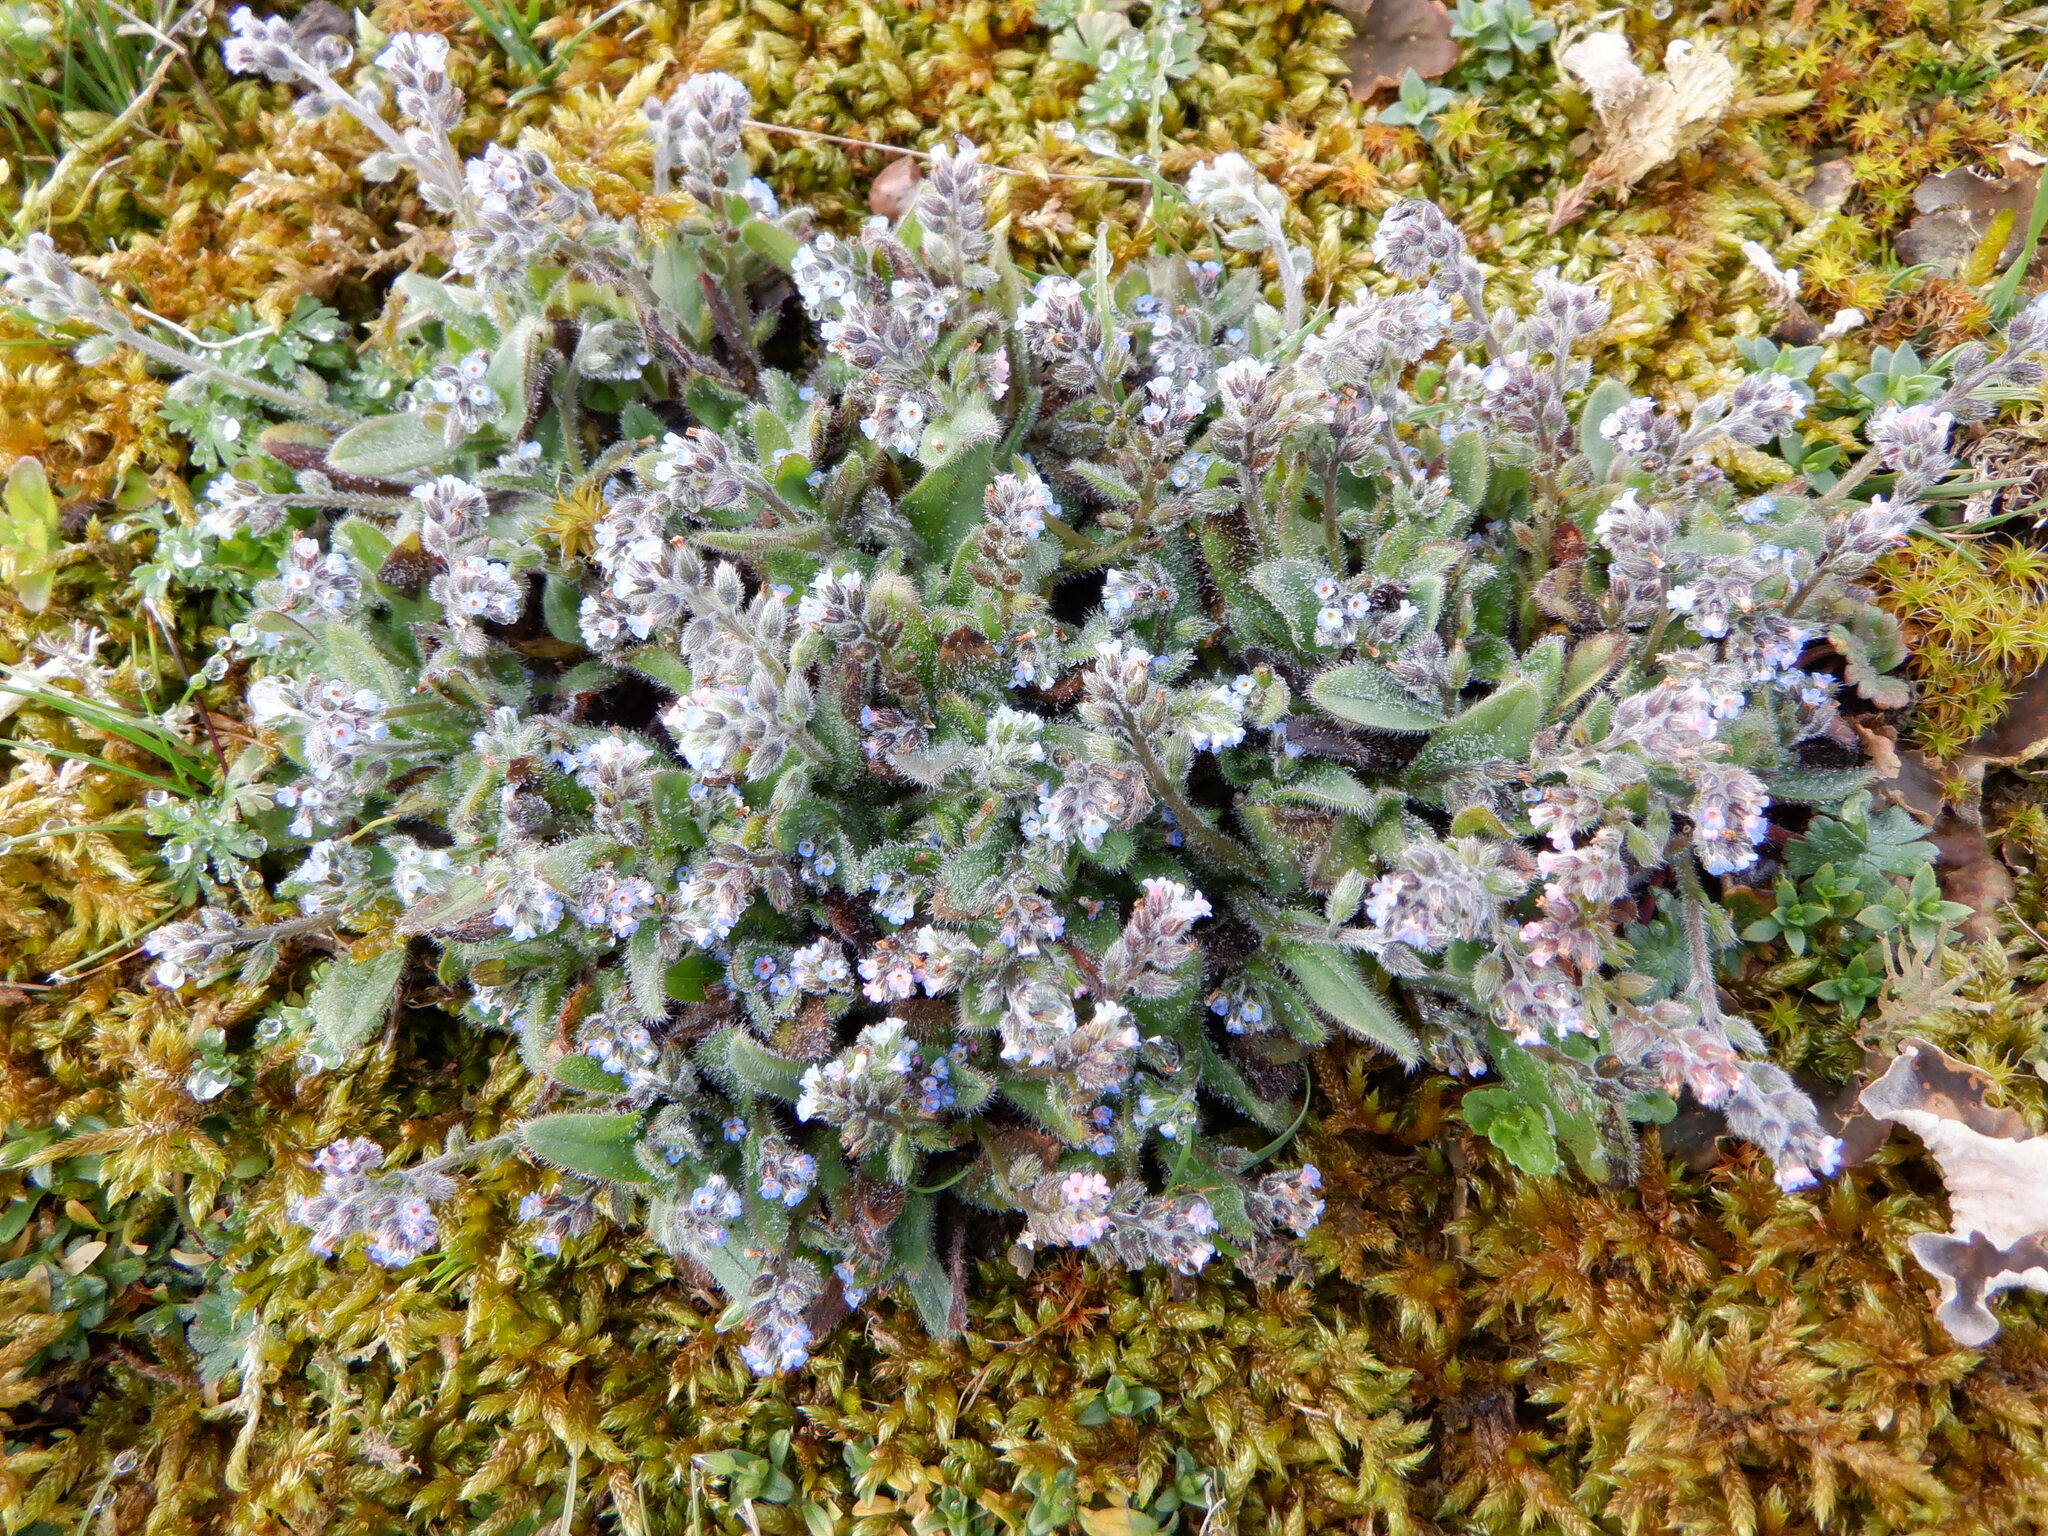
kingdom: Plantae
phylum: Tracheophyta
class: Magnoliopsida
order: Boraginales
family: Boraginaceae
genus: Myosotis
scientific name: Myosotis ramosissima
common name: Early forget-me-not
